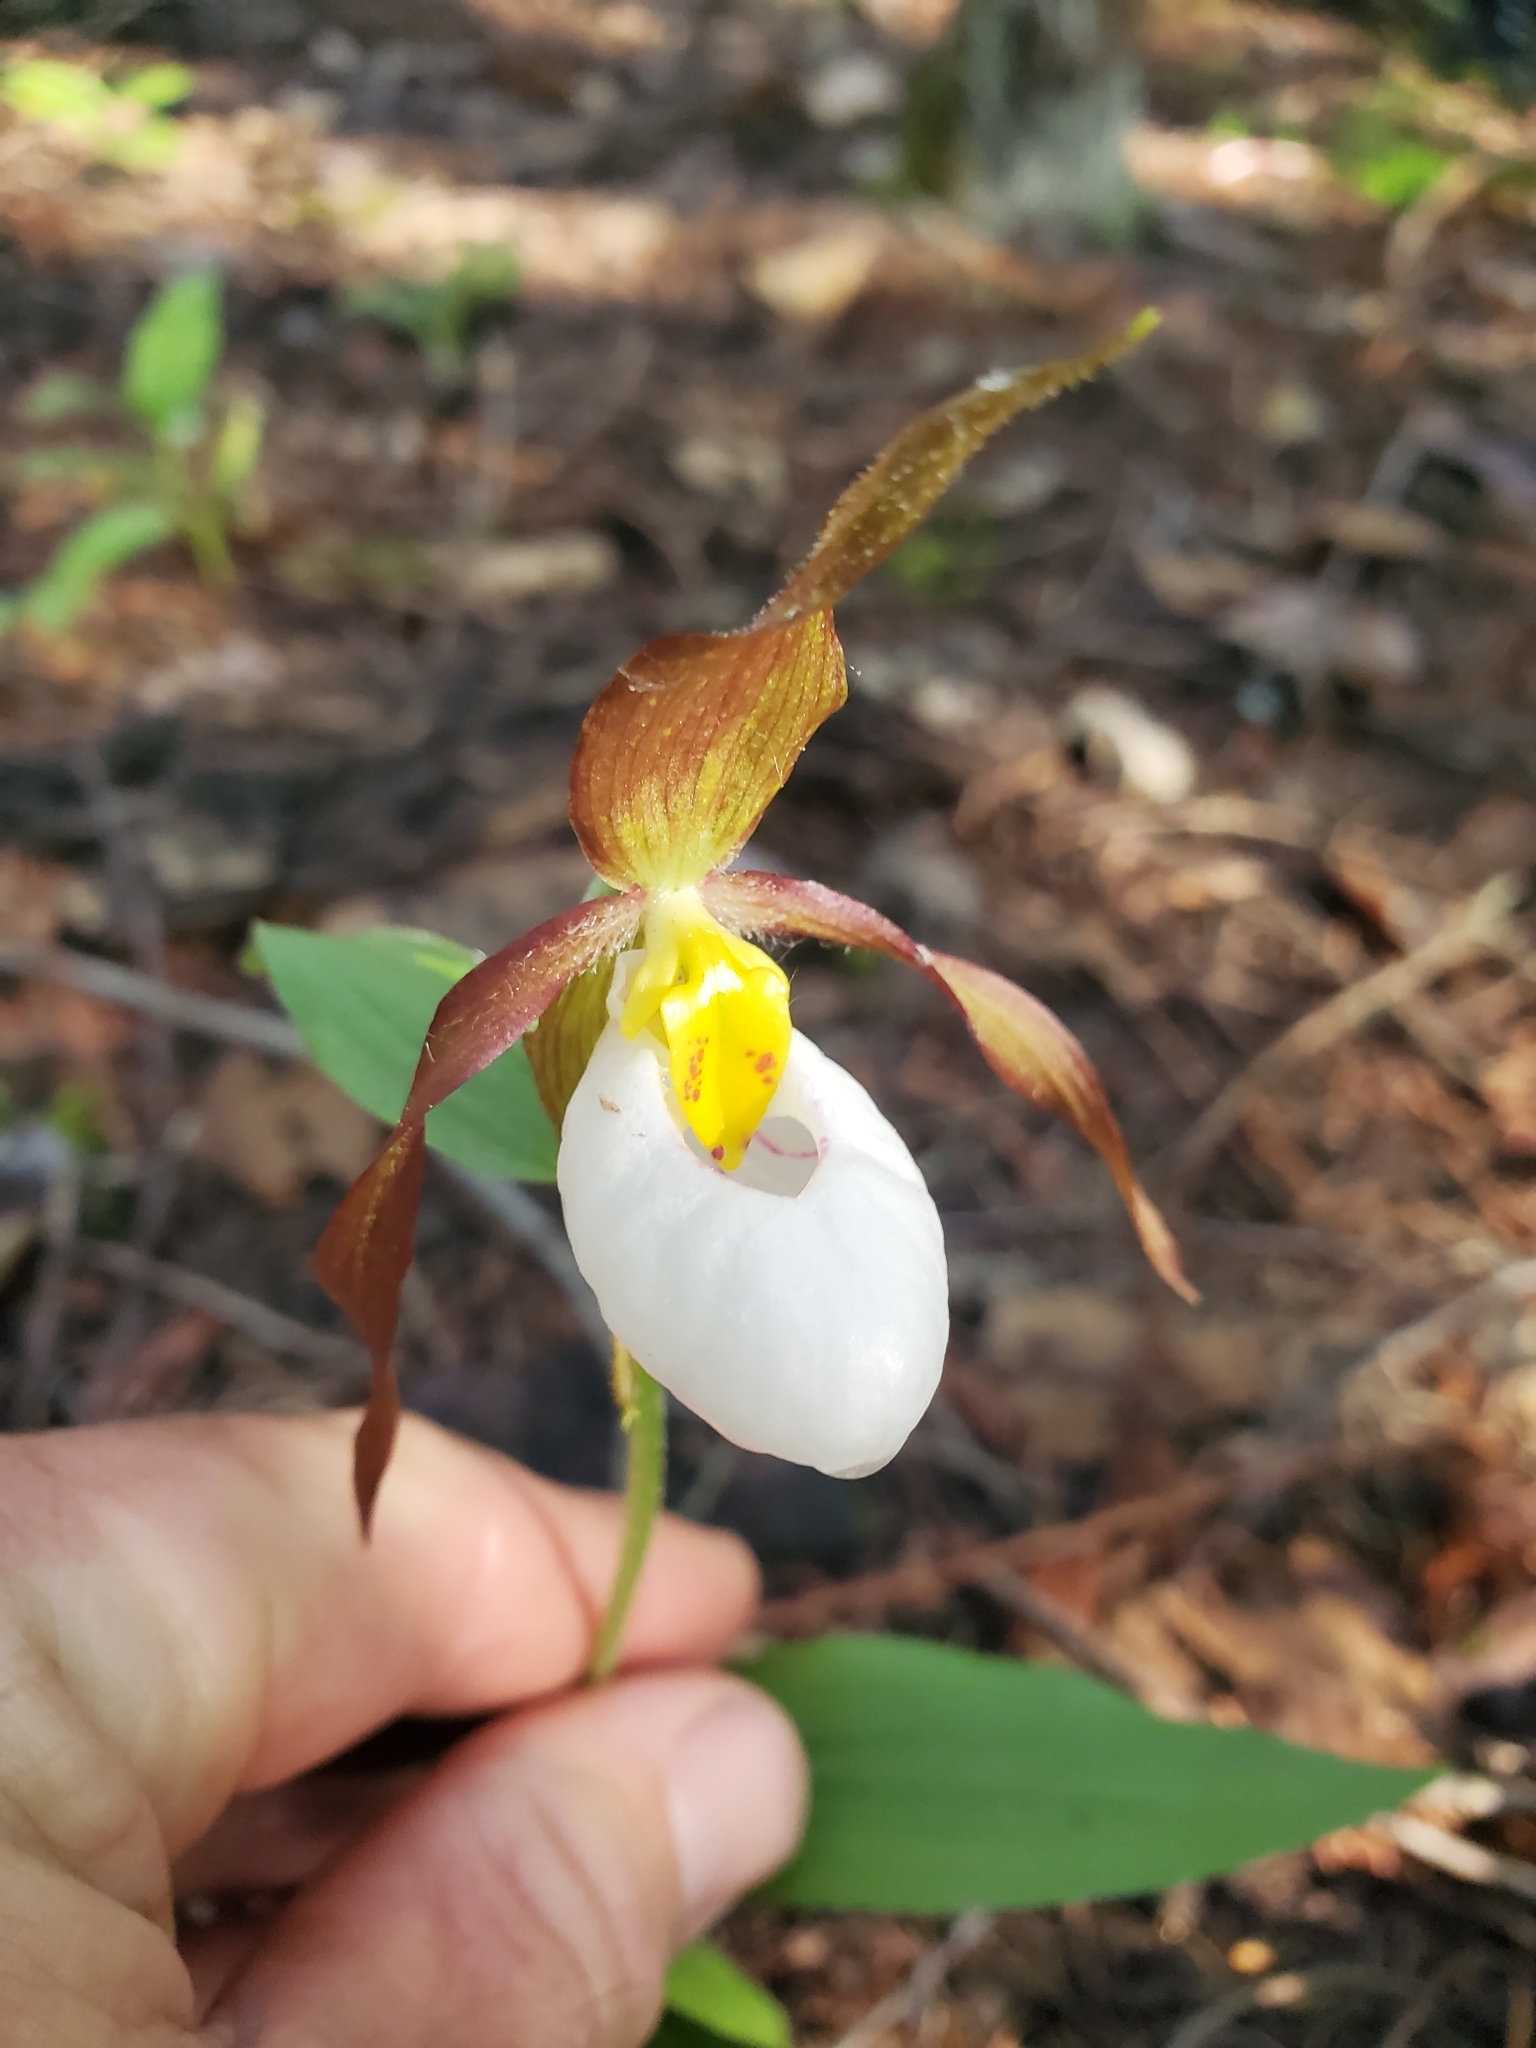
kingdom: Plantae
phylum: Tracheophyta
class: Liliopsida
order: Asparagales
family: Orchidaceae
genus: Cypripedium
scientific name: Cypripedium montanum
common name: Mountain lady's-slipper
